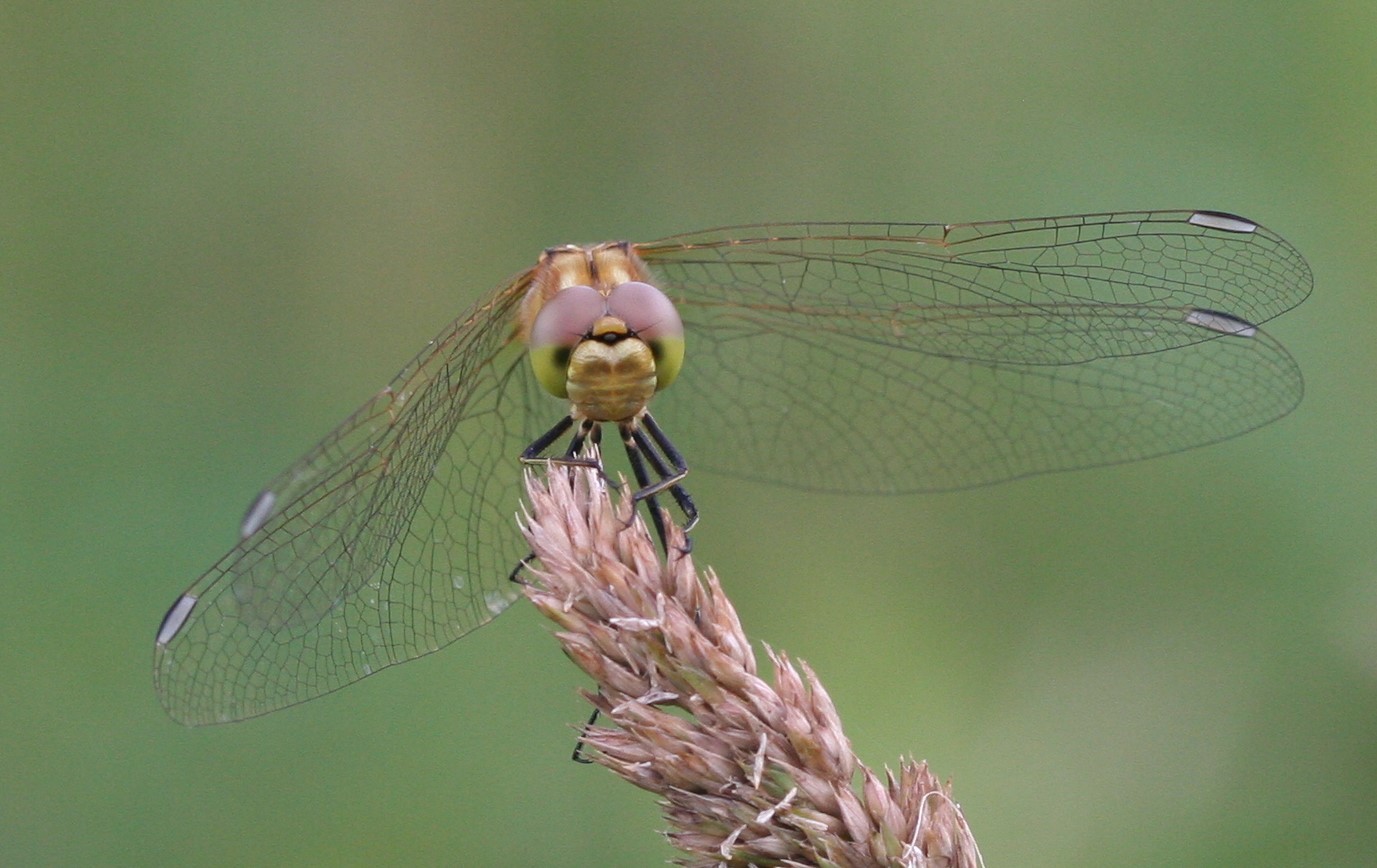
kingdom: Animalia
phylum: Arthropoda
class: Insecta
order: Odonata
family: Libellulidae
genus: Sympetrum
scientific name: Sympetrum vulgatum
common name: Vagrant darter
